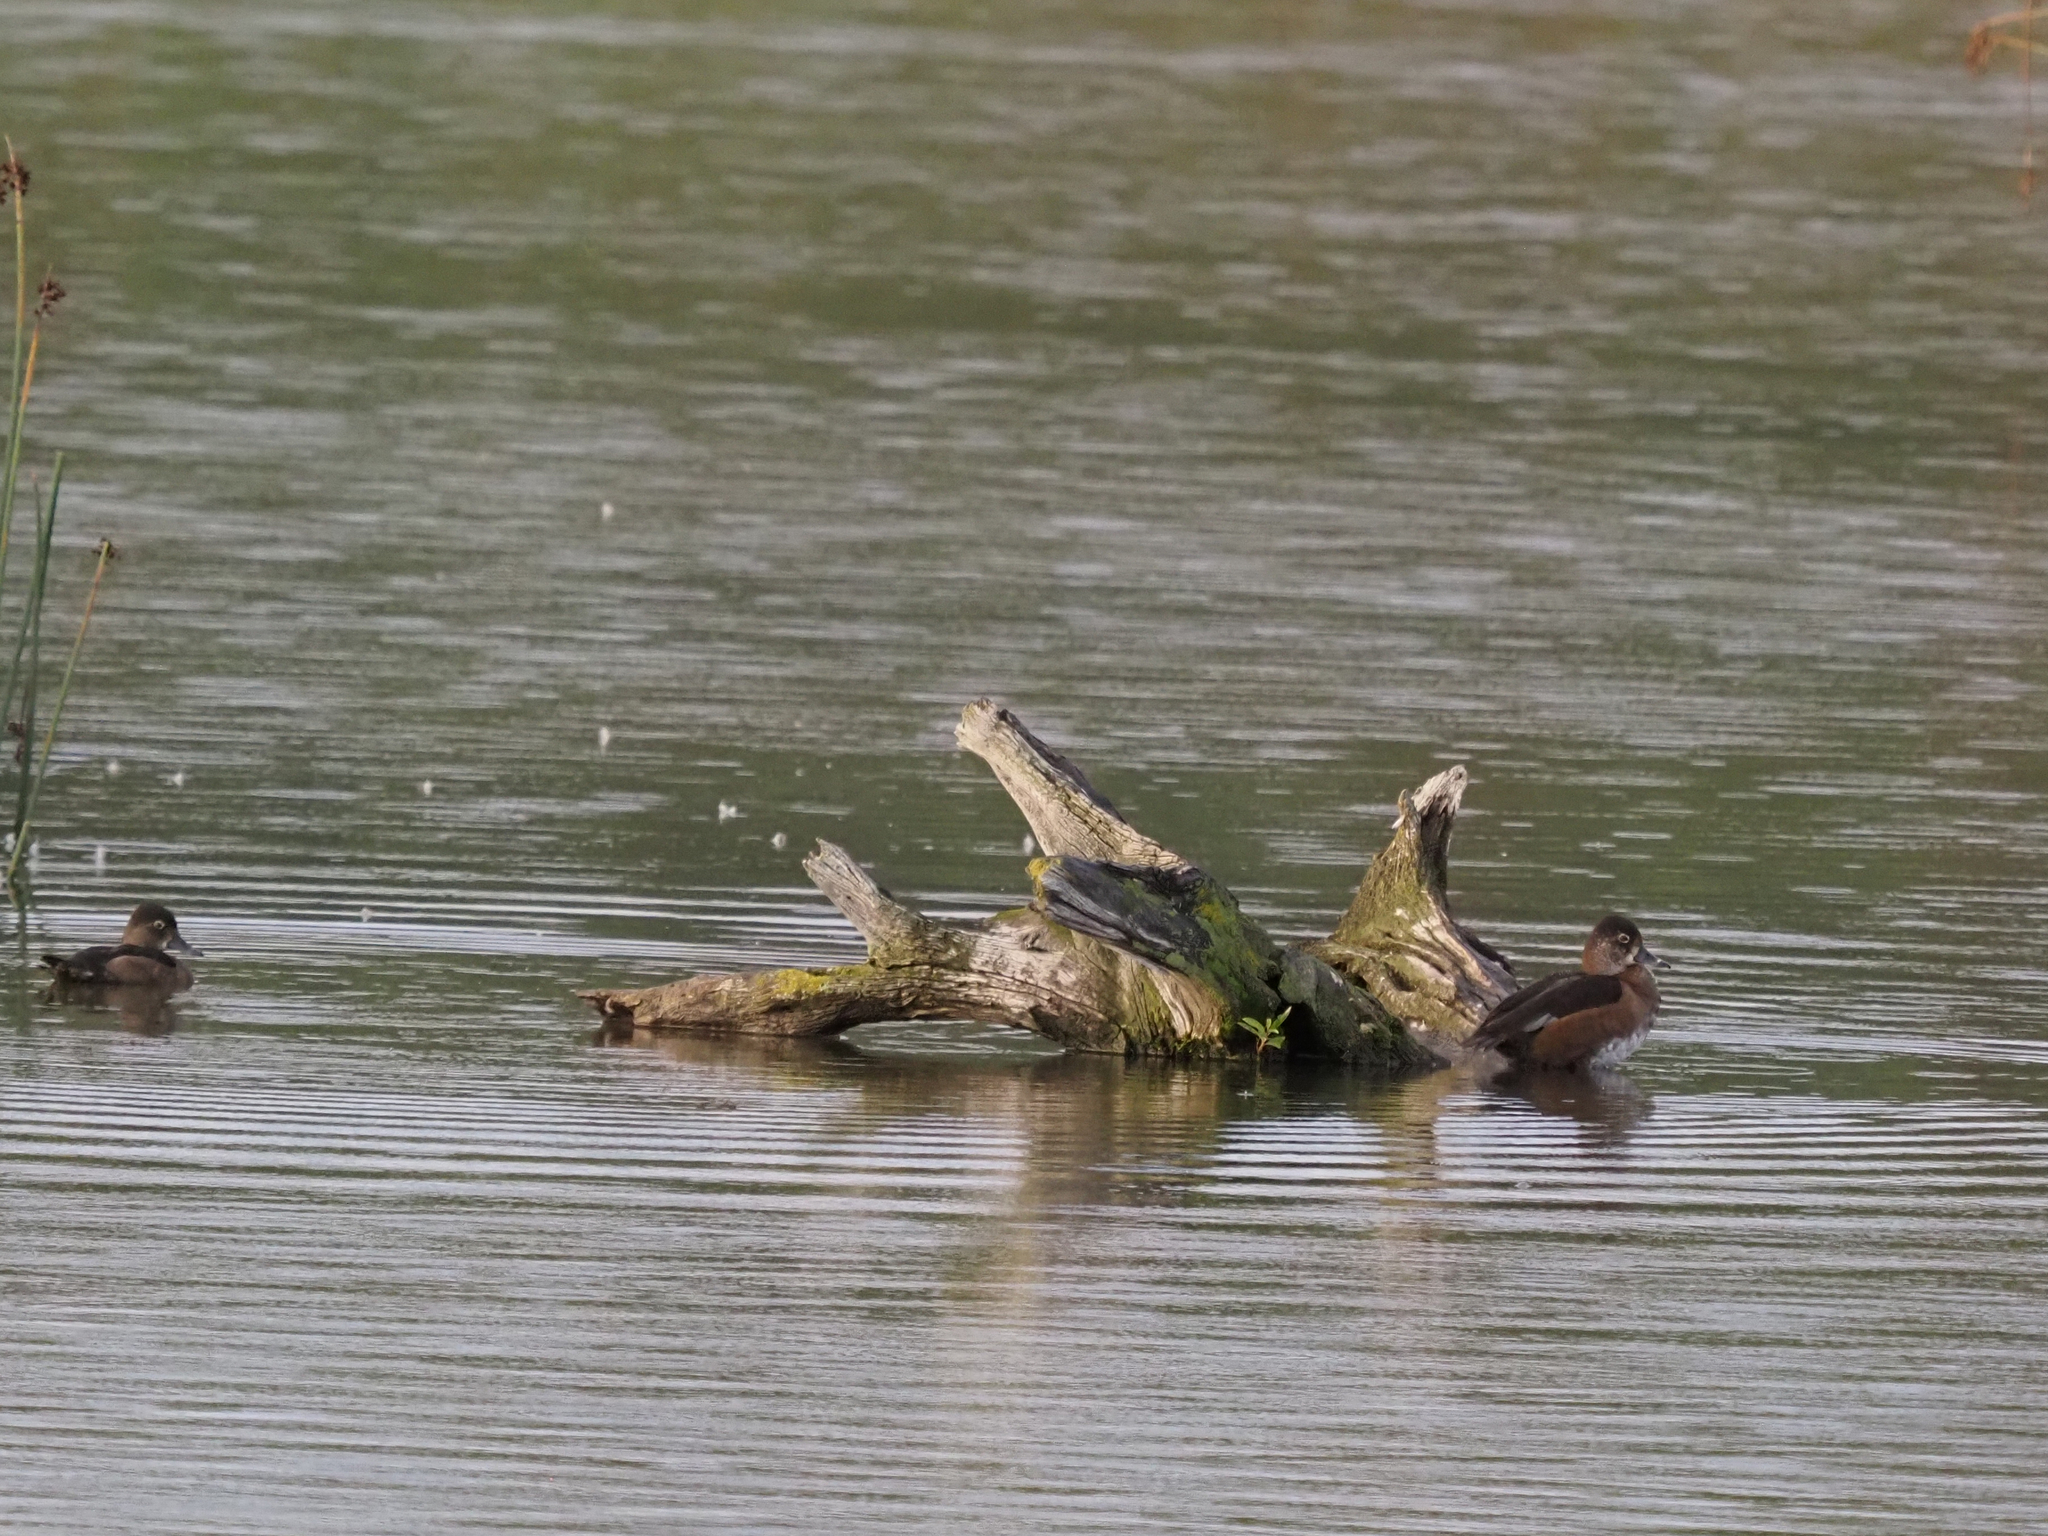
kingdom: Animalia
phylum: Chordata
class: Aves
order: Anseriformes
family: Anatidae
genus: Aythya
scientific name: Aythya collaris
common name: Ring-necked duck
